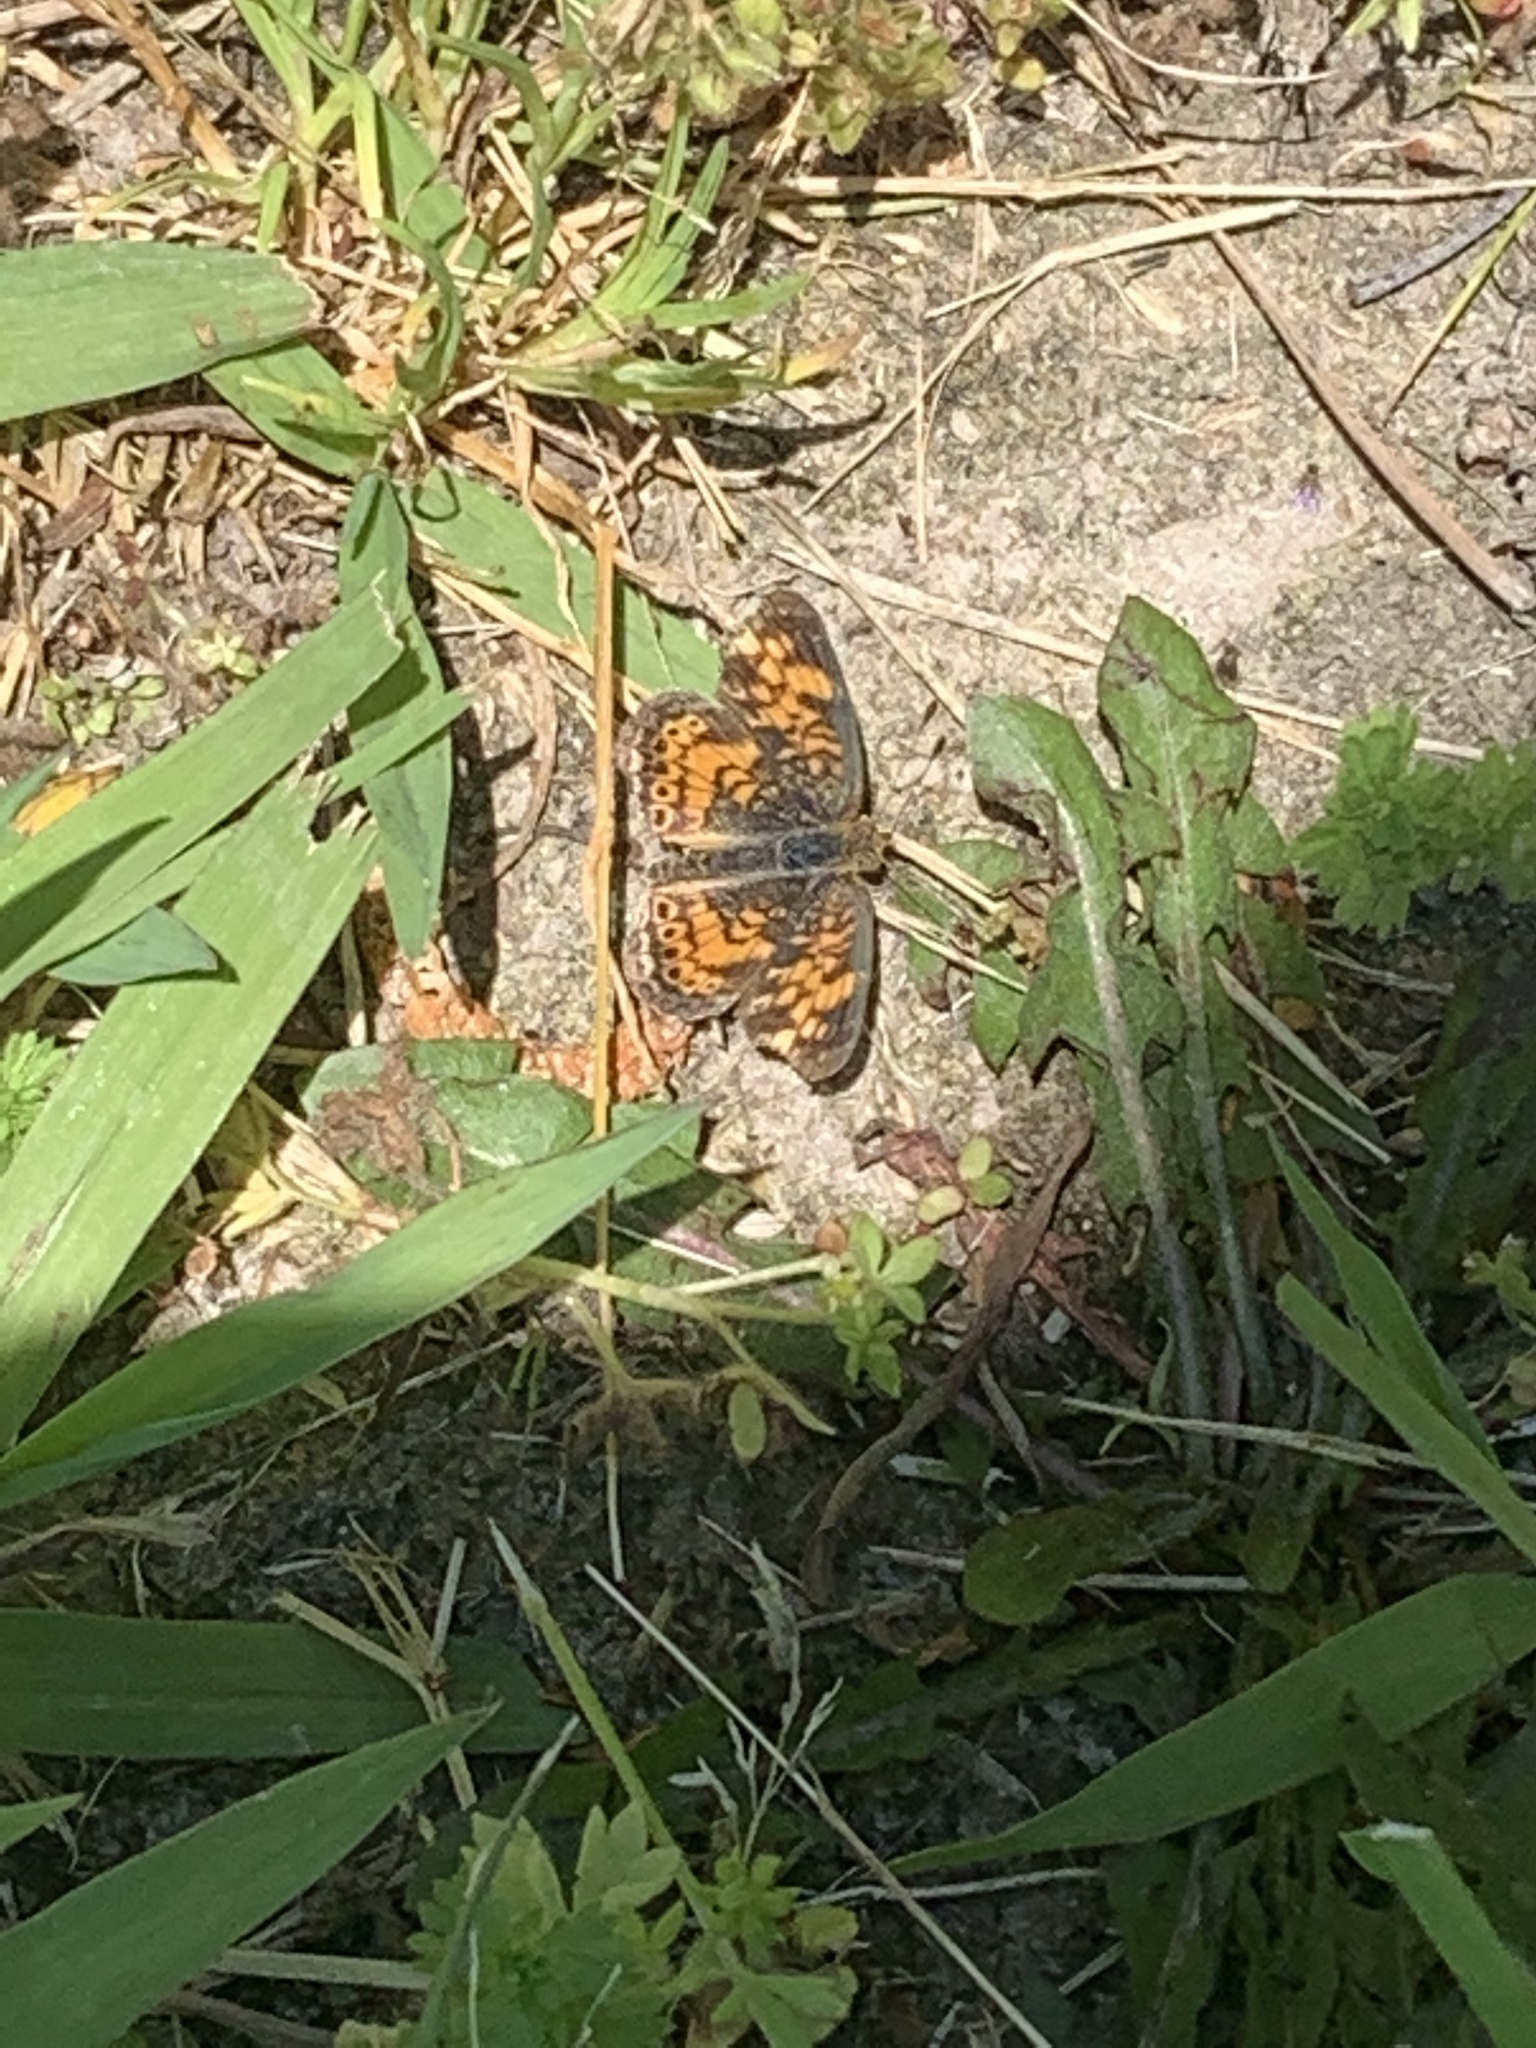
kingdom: Animalia
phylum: Arthropoda
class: Insecta
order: Lepidoptera
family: Nymphalidae
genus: Phyciodes
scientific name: Phyciodes tharos
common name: Pearl crescent
